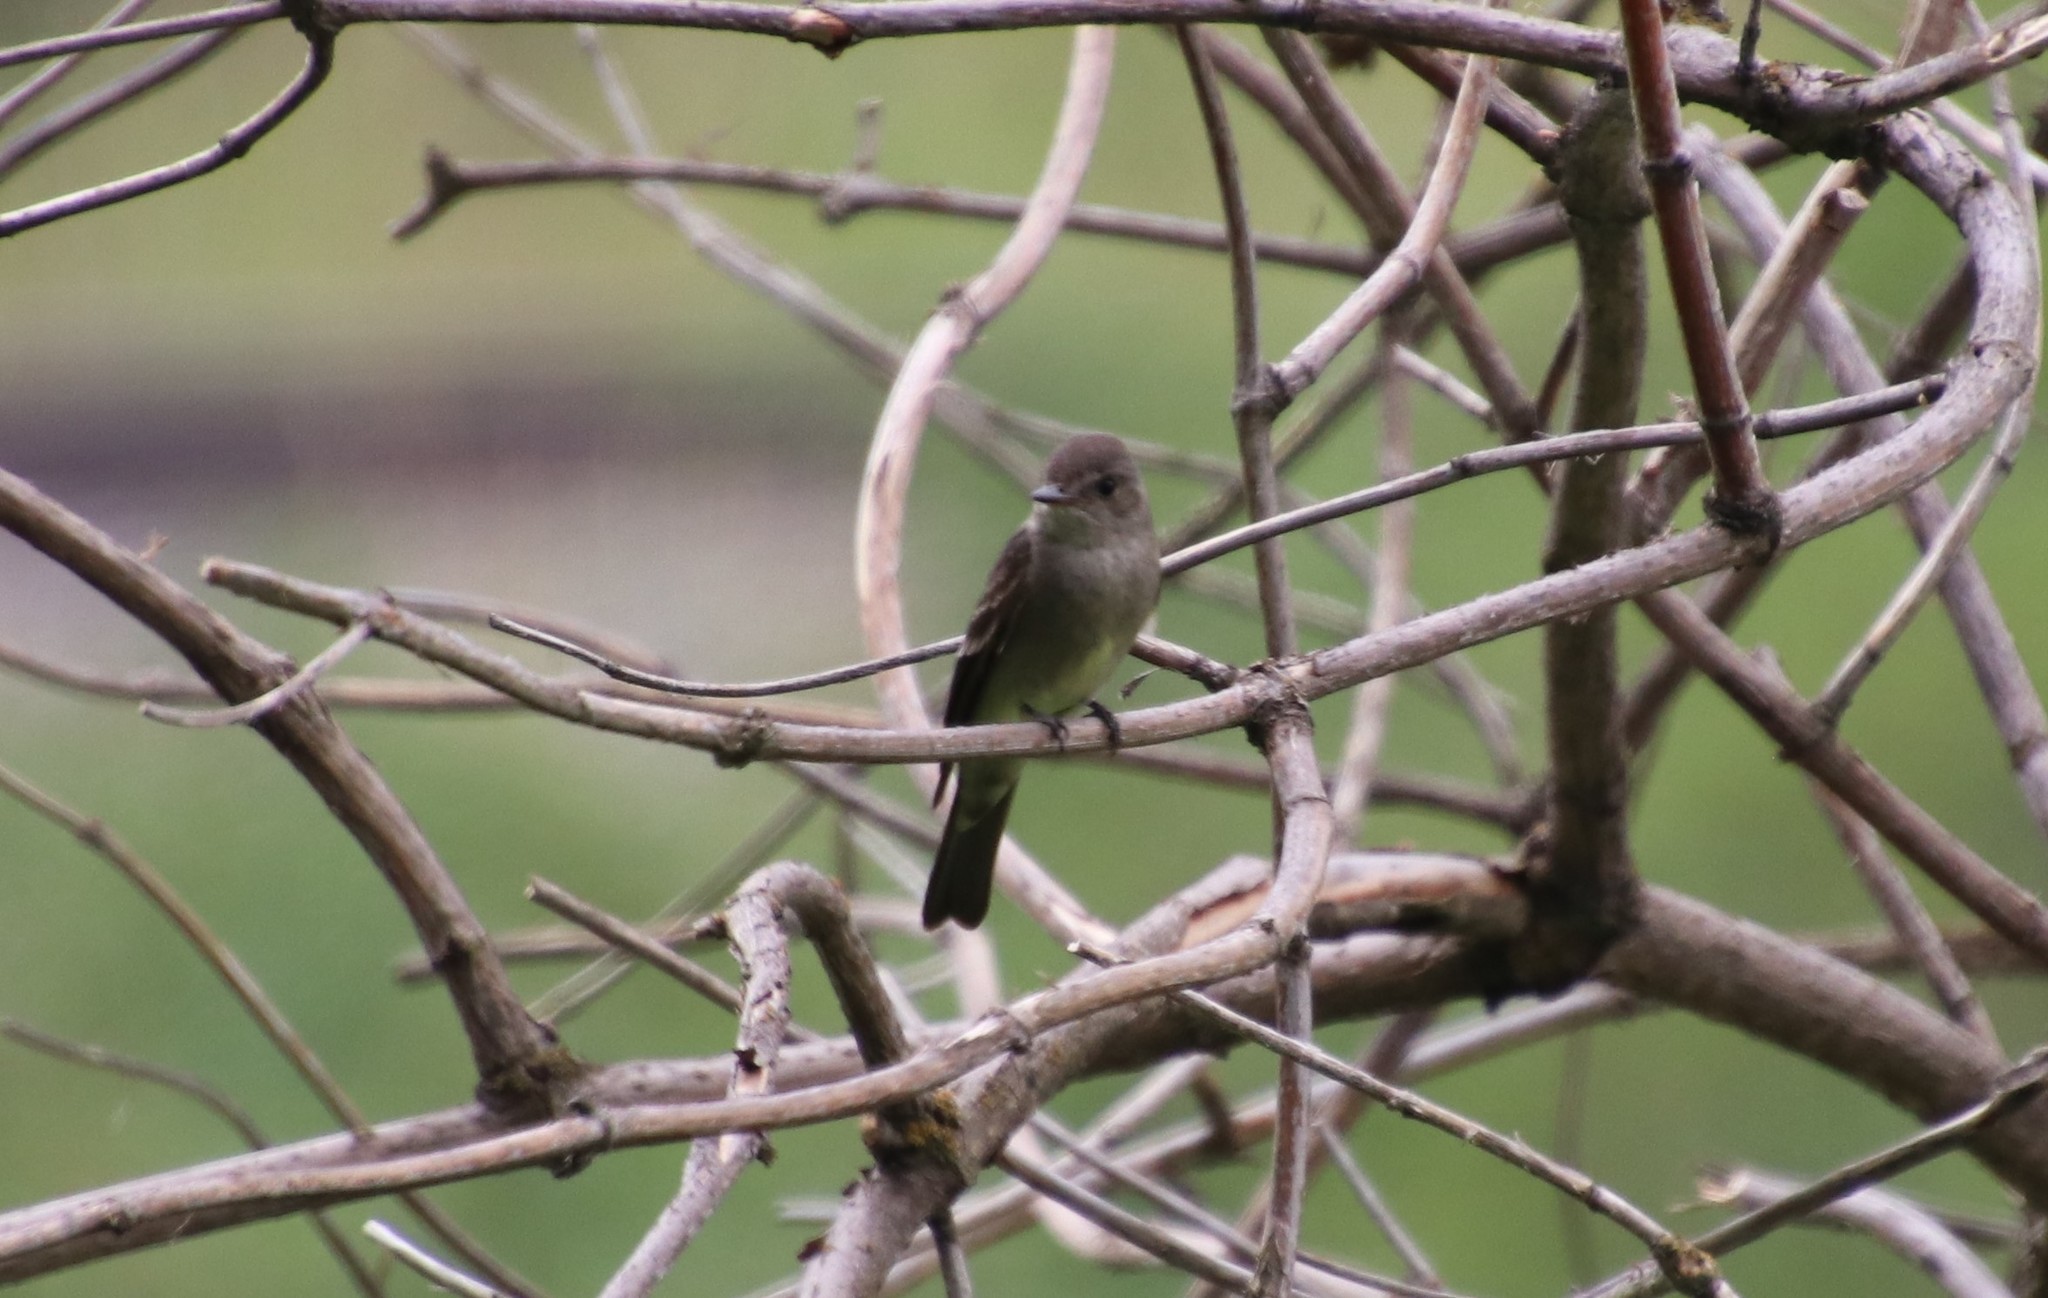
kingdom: Animalia
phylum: Chordata
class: Aves
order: Passeriformes
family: Tyrannidae
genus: Contopus
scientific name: Contopus sordidulus
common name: Western wood-pewee
